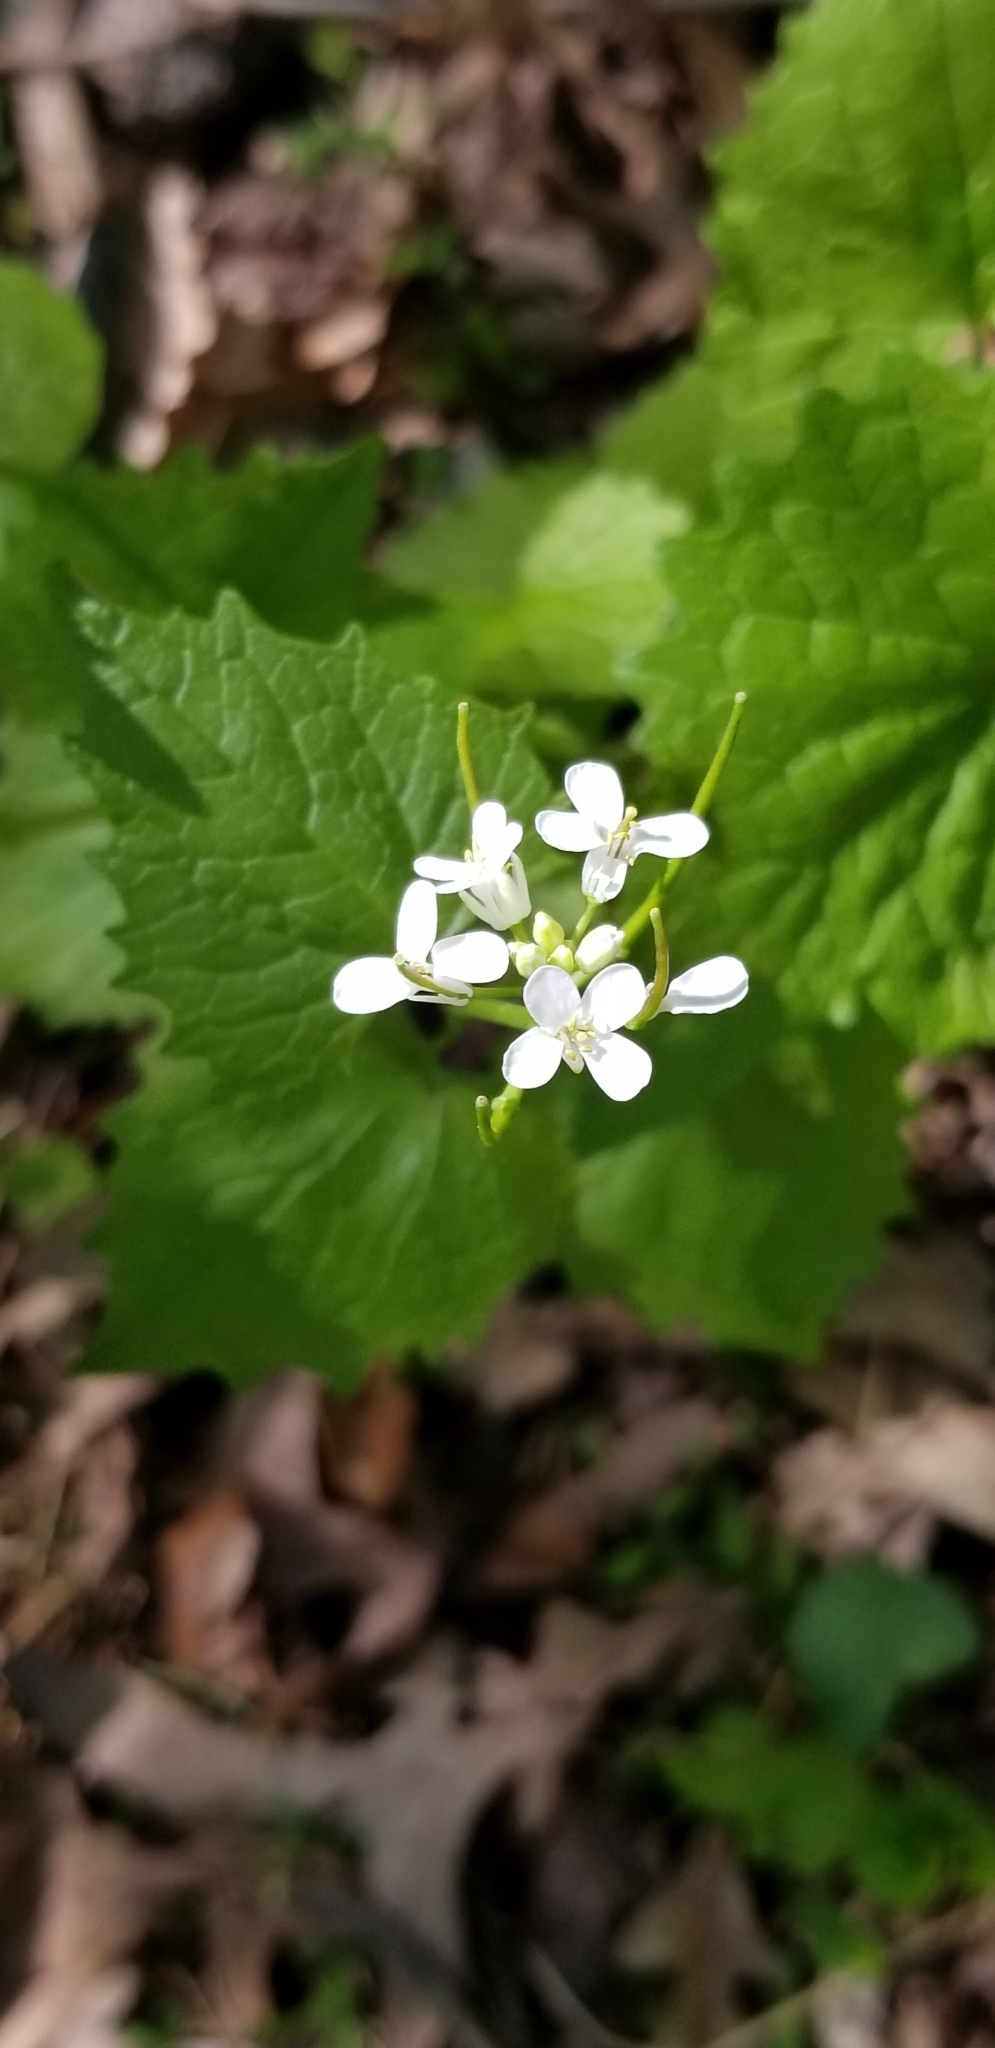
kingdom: Plantae
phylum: Tracheophyta
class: Magnoliopsida
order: Brassicales
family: Brassicaceae
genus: Alliaria
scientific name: Alliaria petiolata
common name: Garlic mustard
